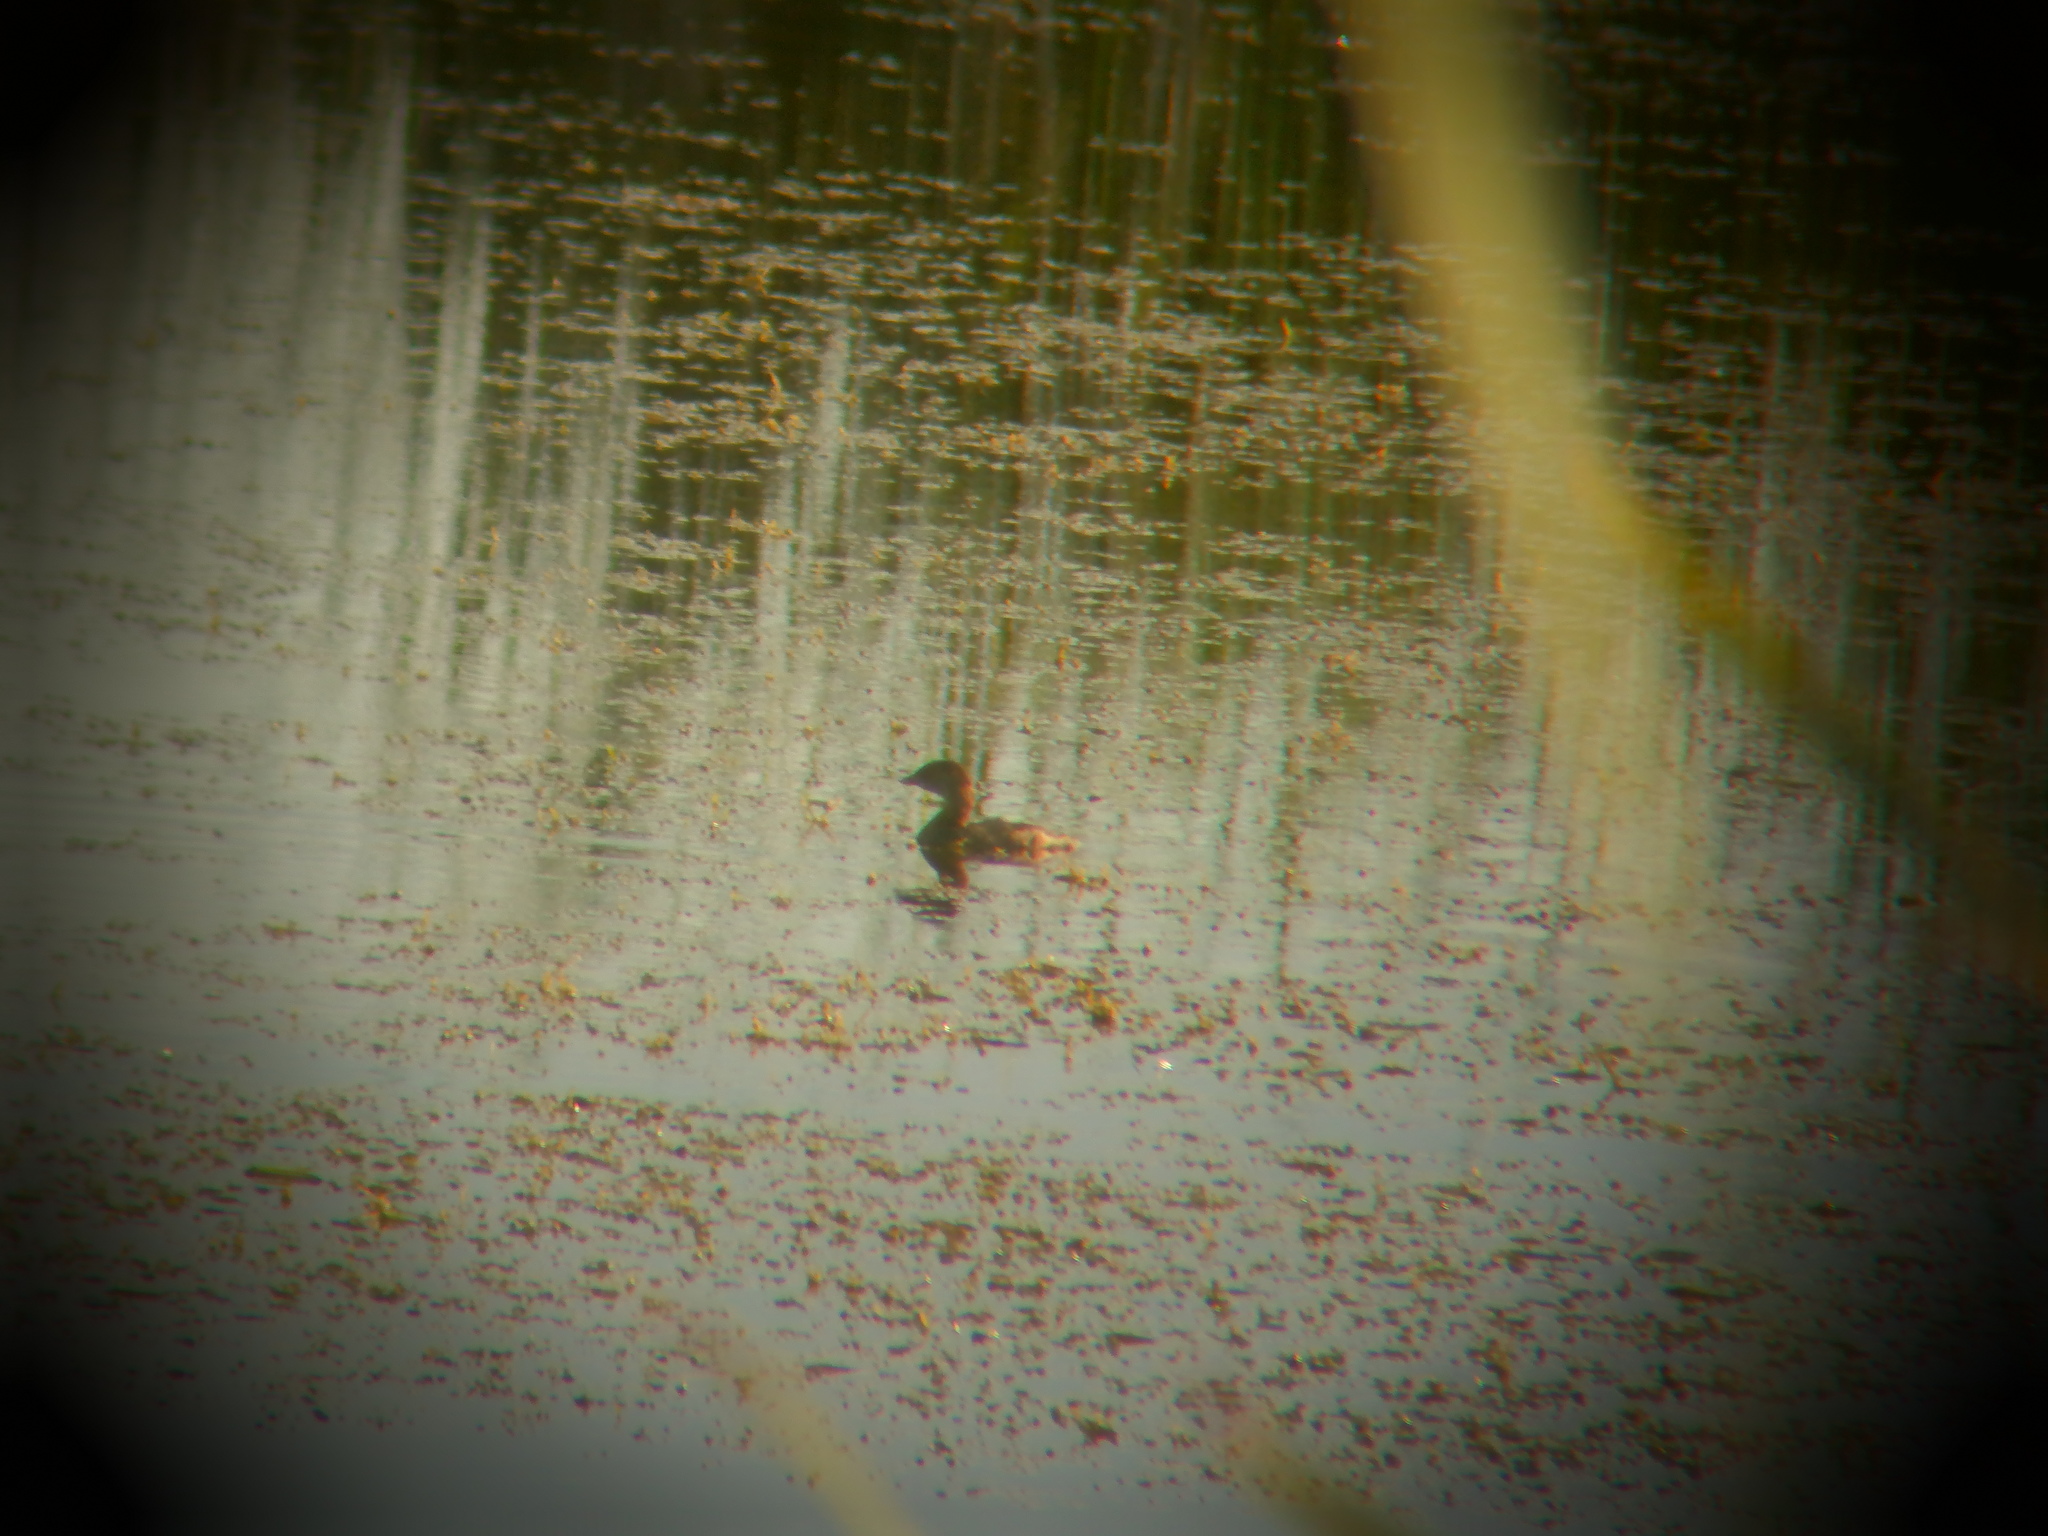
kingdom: Animalia
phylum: Chordata
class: Aves
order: Podicipediformes
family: Podicipedidae
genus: Podilymbus
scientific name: Podilymbus podiceps
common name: Pied-billed grebe
